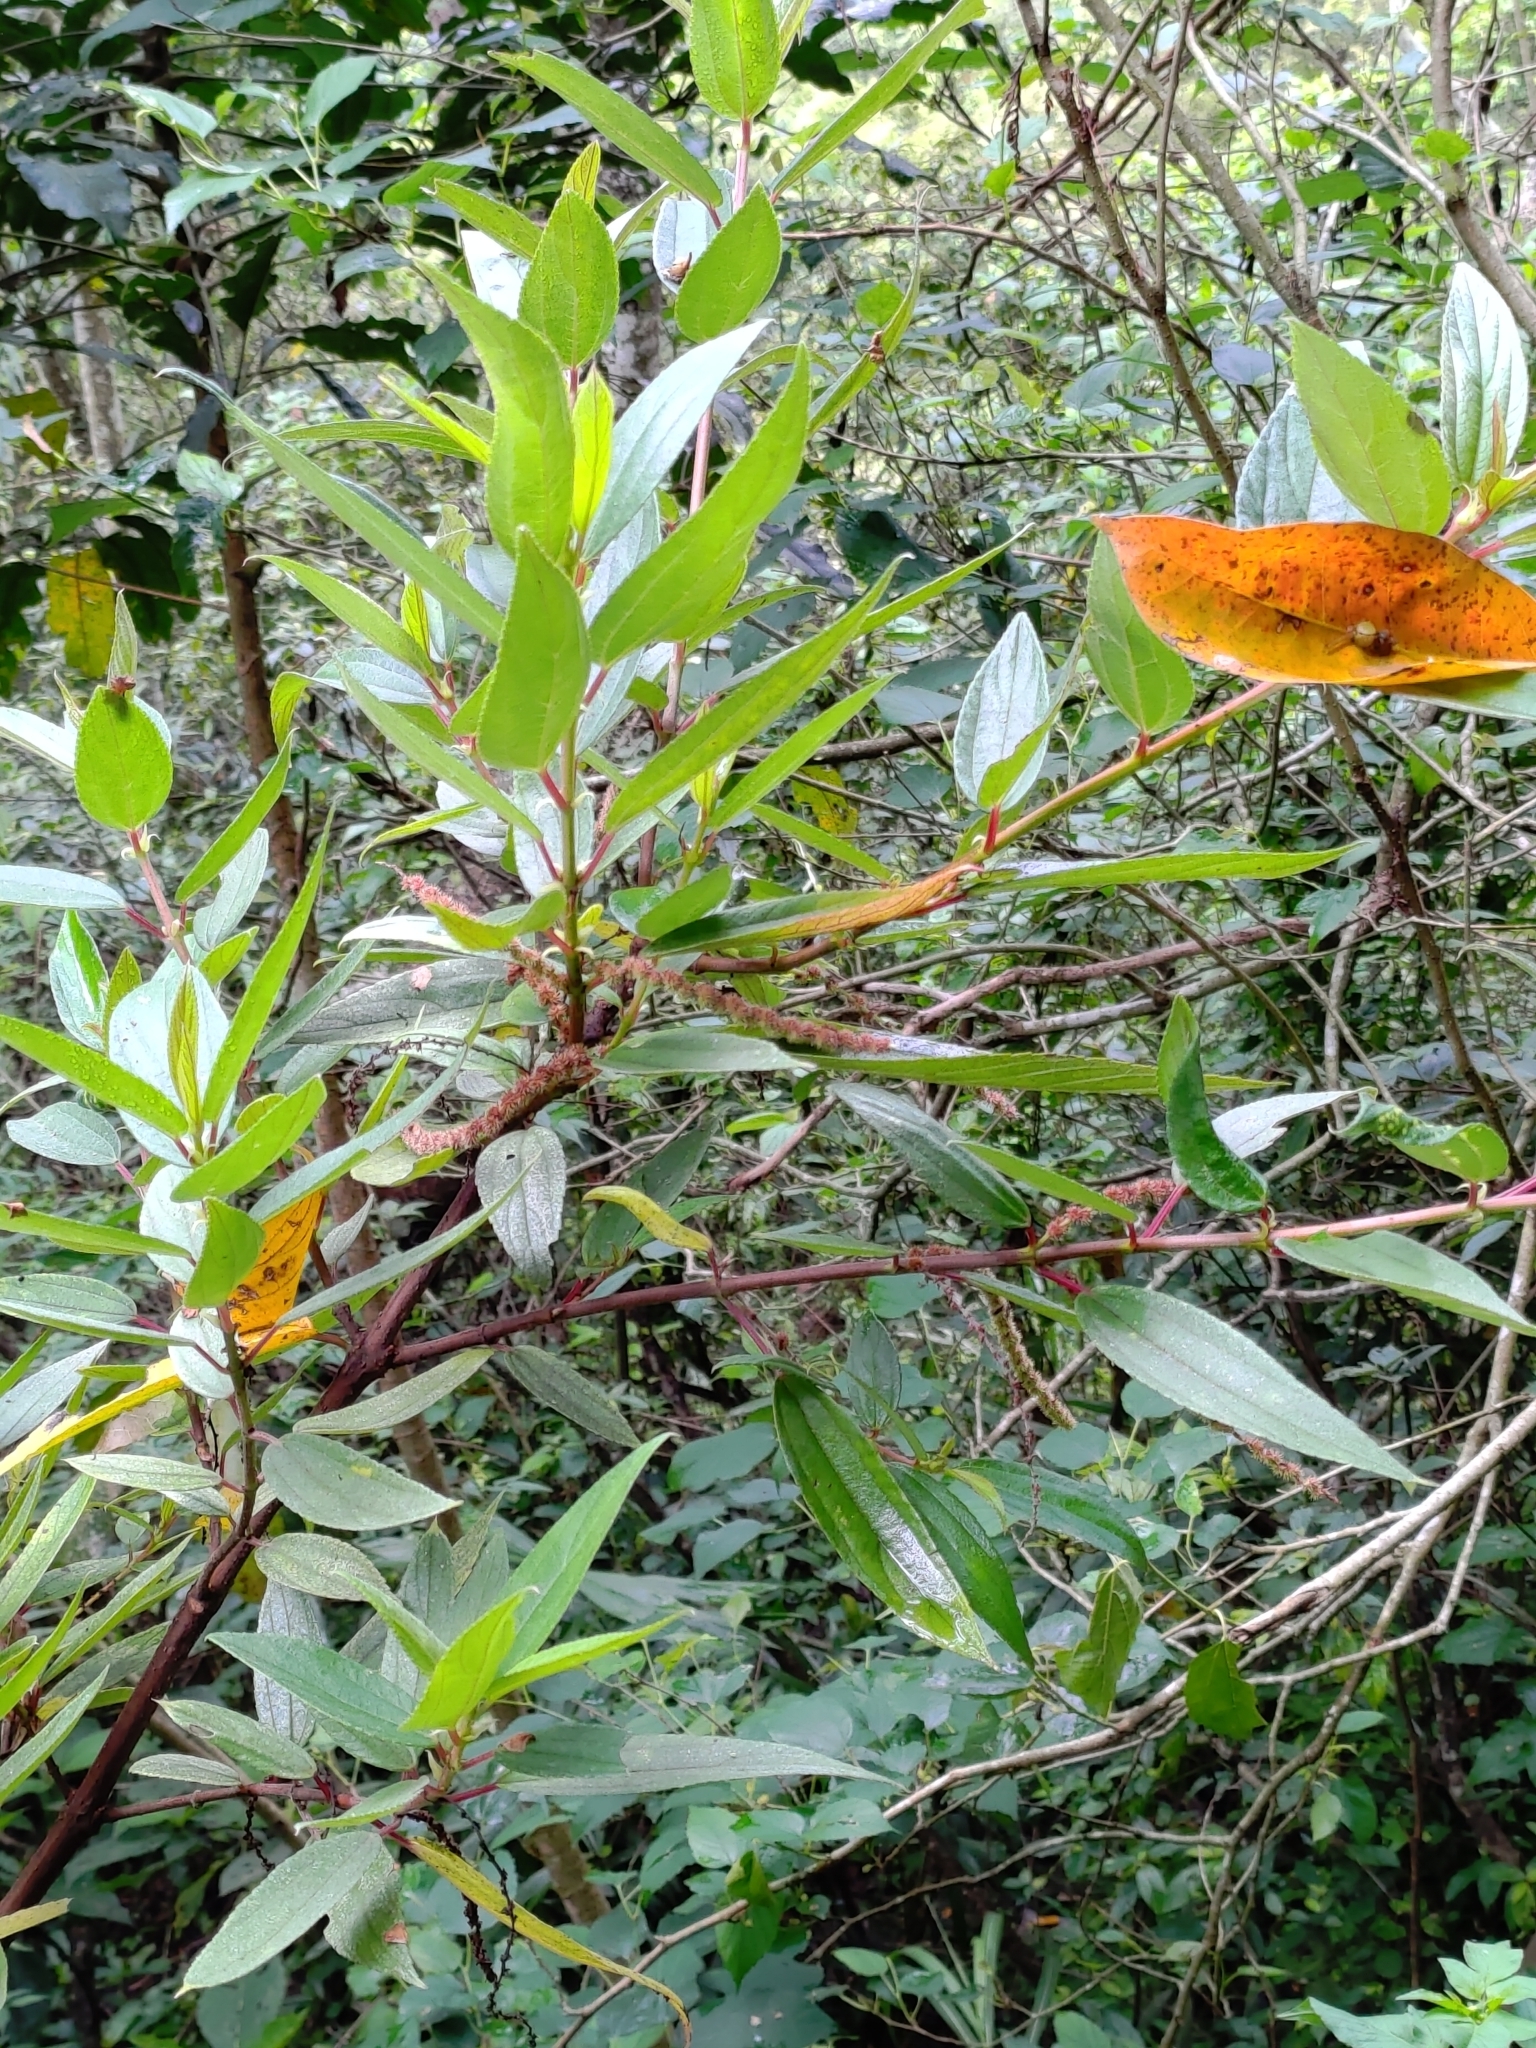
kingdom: Plantae
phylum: Tracheophyta
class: Magnoliopsida
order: Rosales
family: Urticaceae
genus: Boehmeria
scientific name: Boehmeria densiflora
